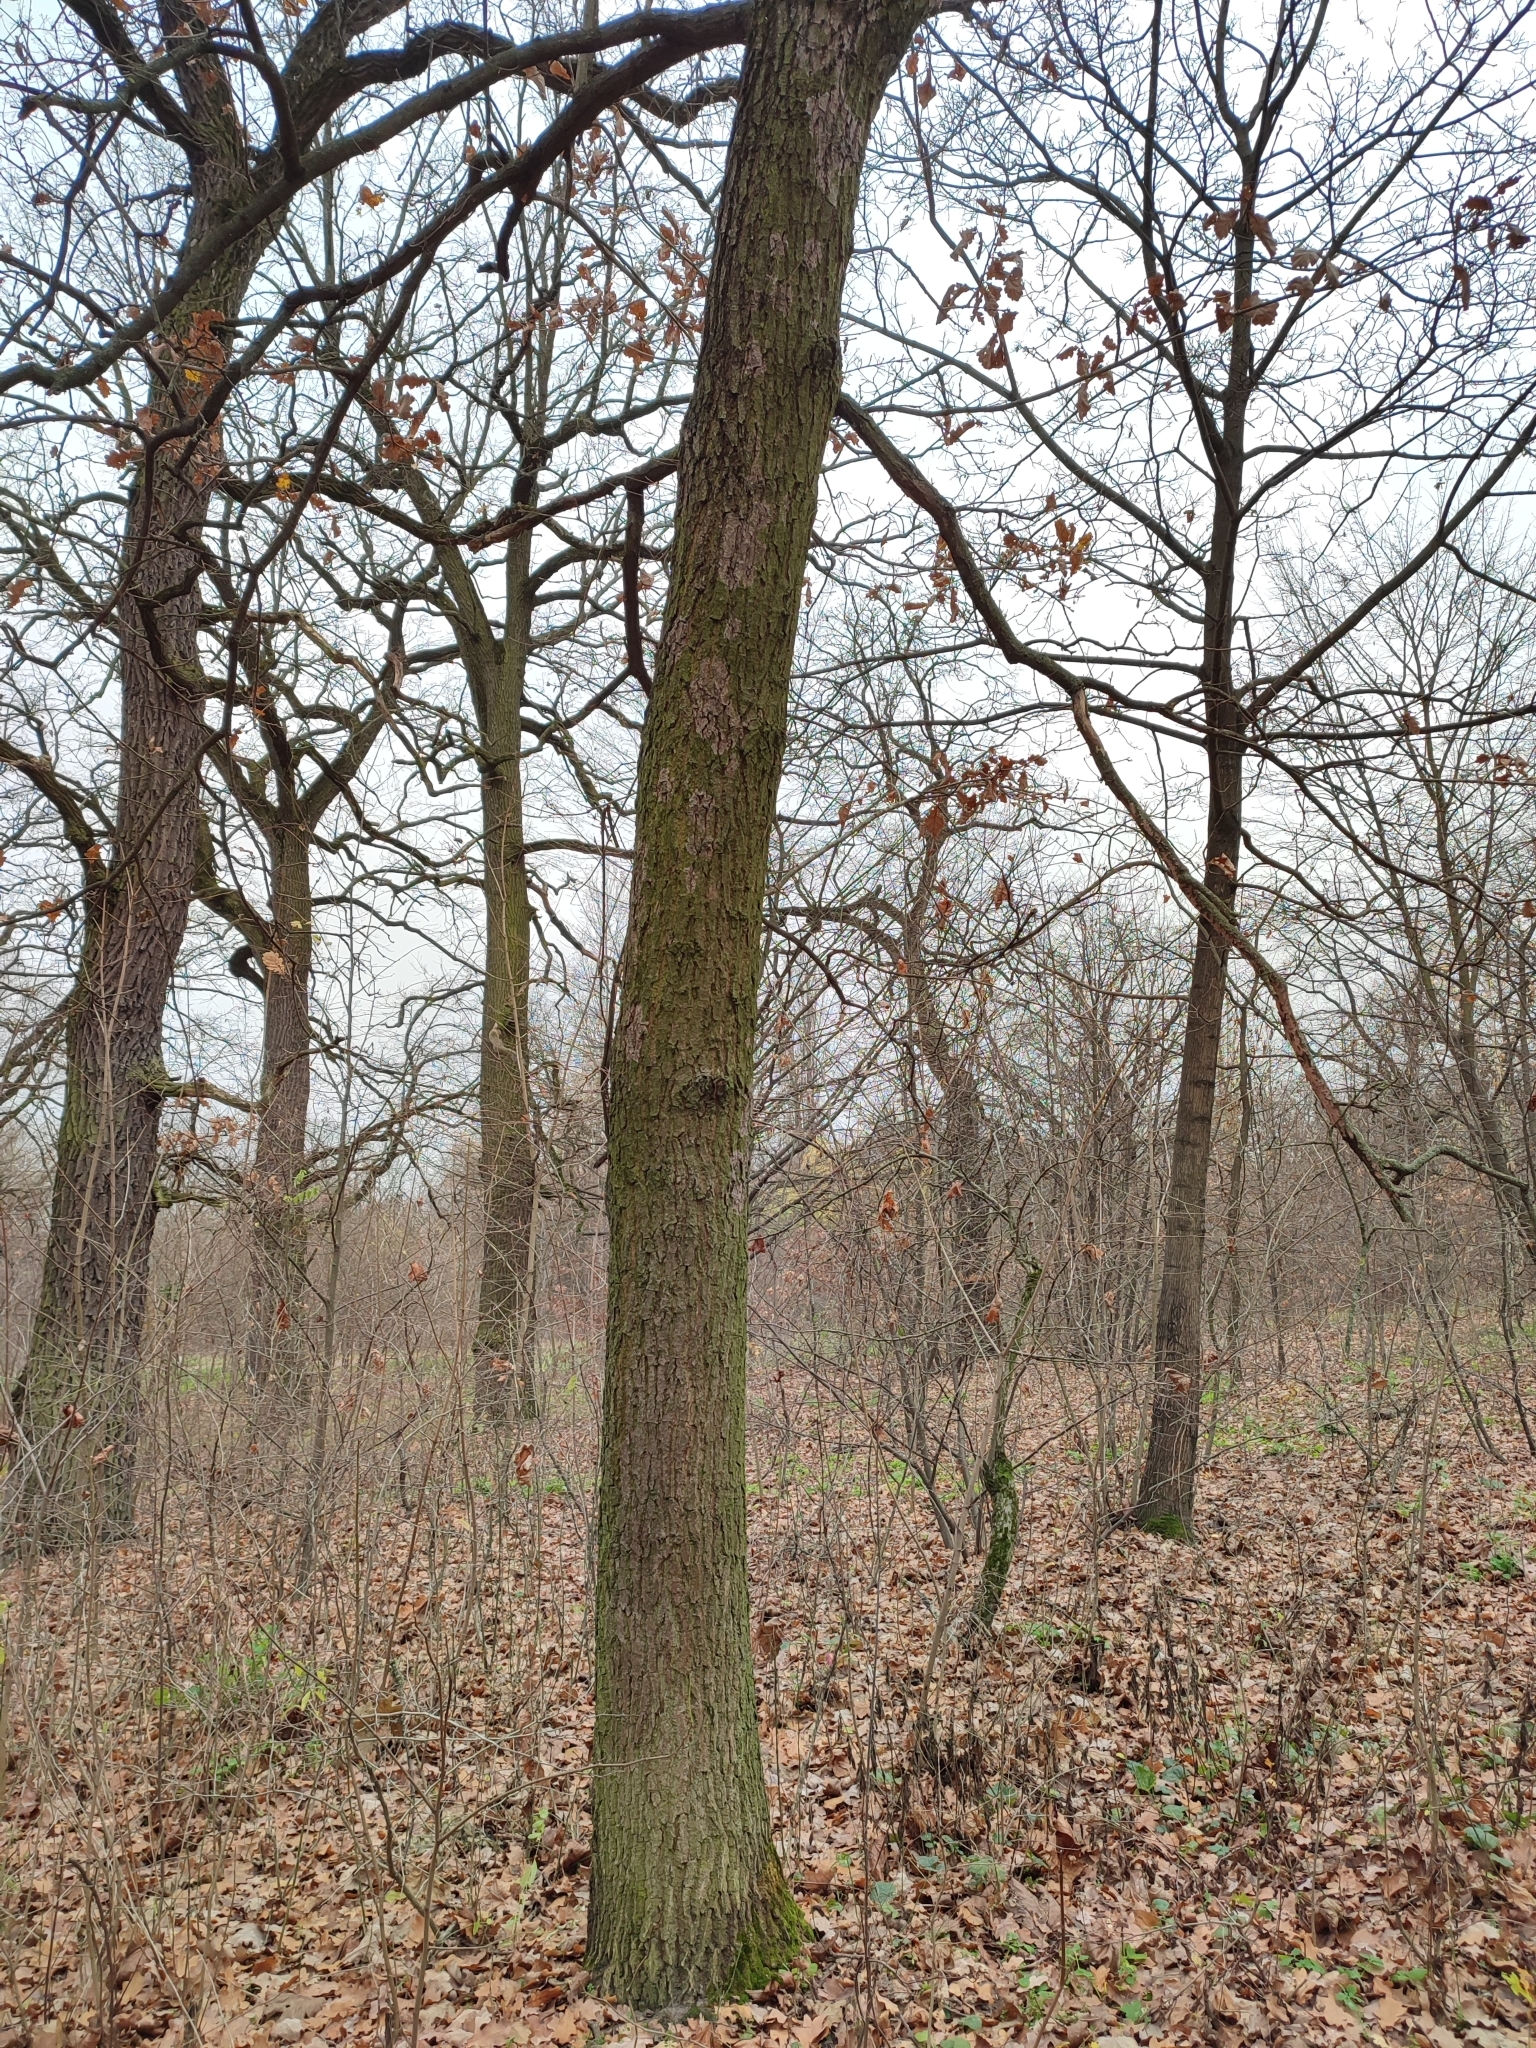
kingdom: Plantae
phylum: Tracheophyta
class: Magnoliopsida
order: Fagales
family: Fagaceae
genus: Quercus
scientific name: Quercus robur
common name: Pedunculate oak
